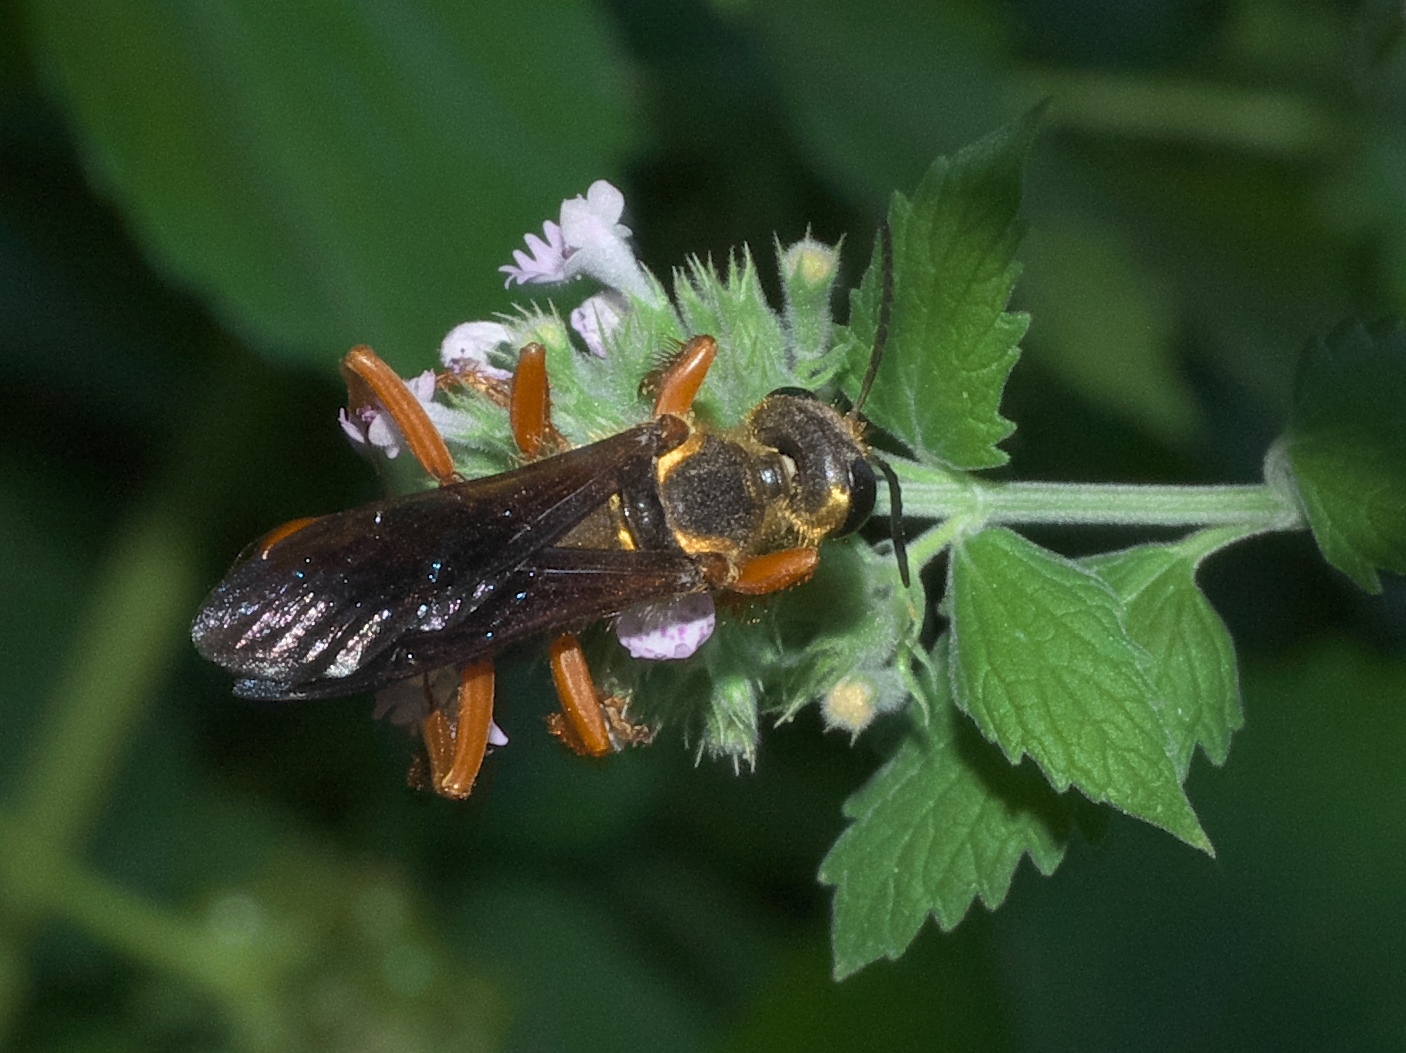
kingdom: Animalia
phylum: Arthropoda
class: Insecta
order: Hymenoptera
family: Sphecidae
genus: Sphex
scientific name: Sphex ichneumoneus
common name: Great golden digger wasp
